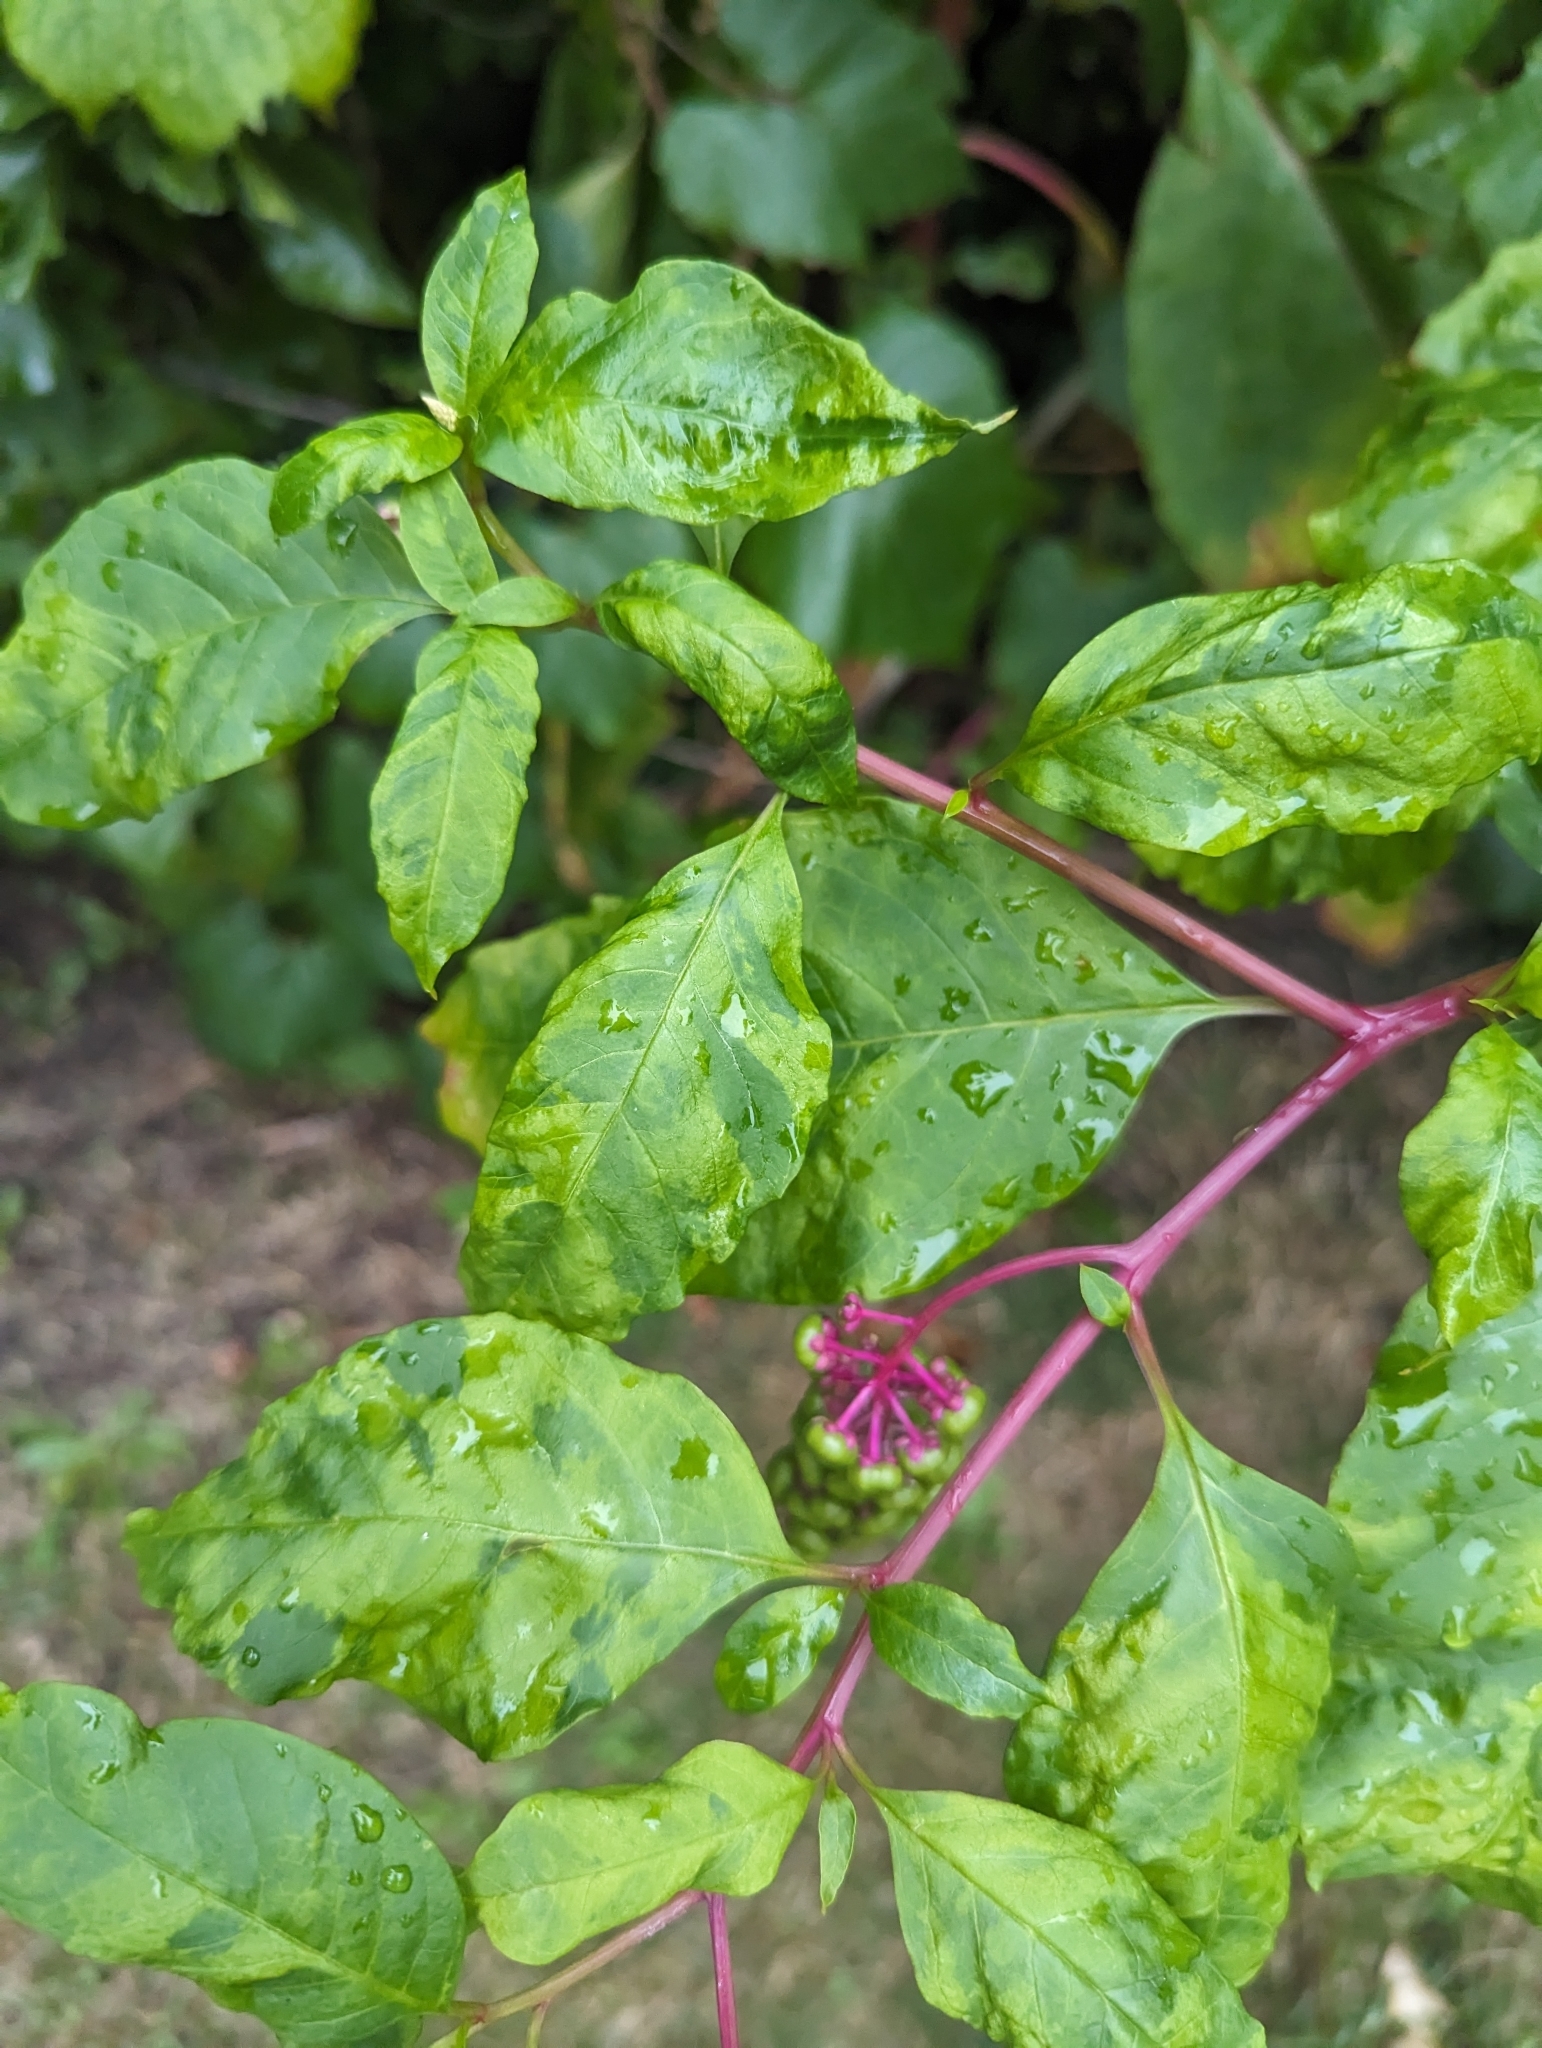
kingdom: Viruses
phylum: Pisuviricota
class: Stelpaviricetes
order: Patatavirales
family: Potyviridae
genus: Potyvirus
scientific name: Potyvirus Pokeweed mosaic virus
